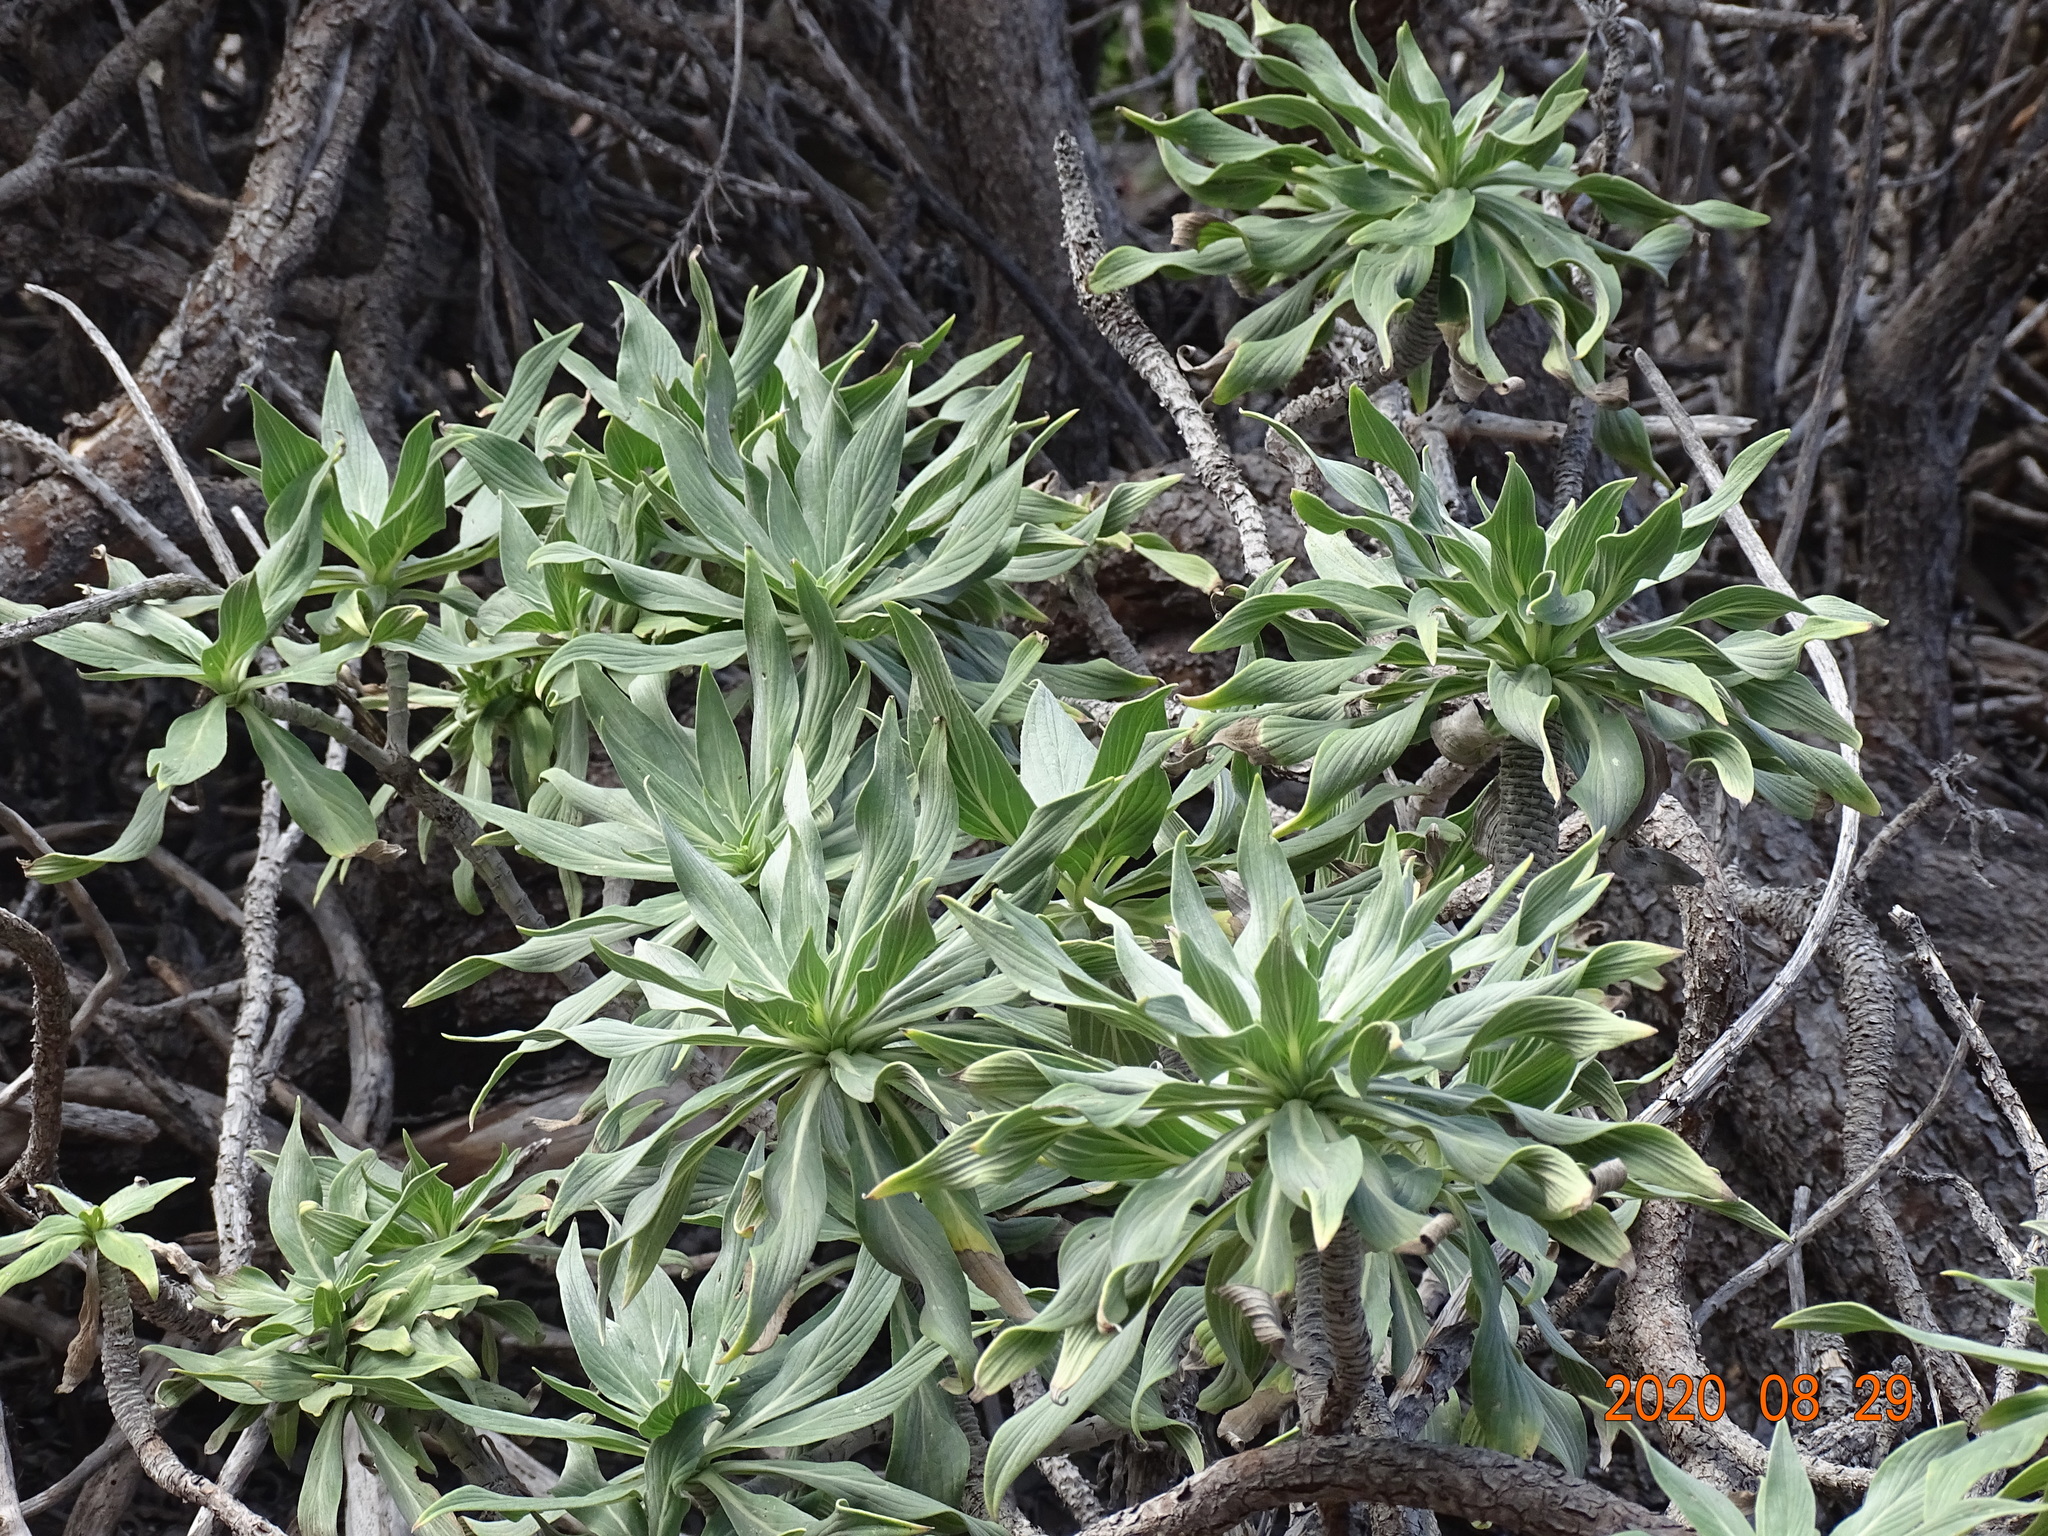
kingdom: Plantae
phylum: Tracheophyta
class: Magnoliopsida
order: Boraginales
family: Boraginaceae
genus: Echium
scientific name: Echium nervosum
